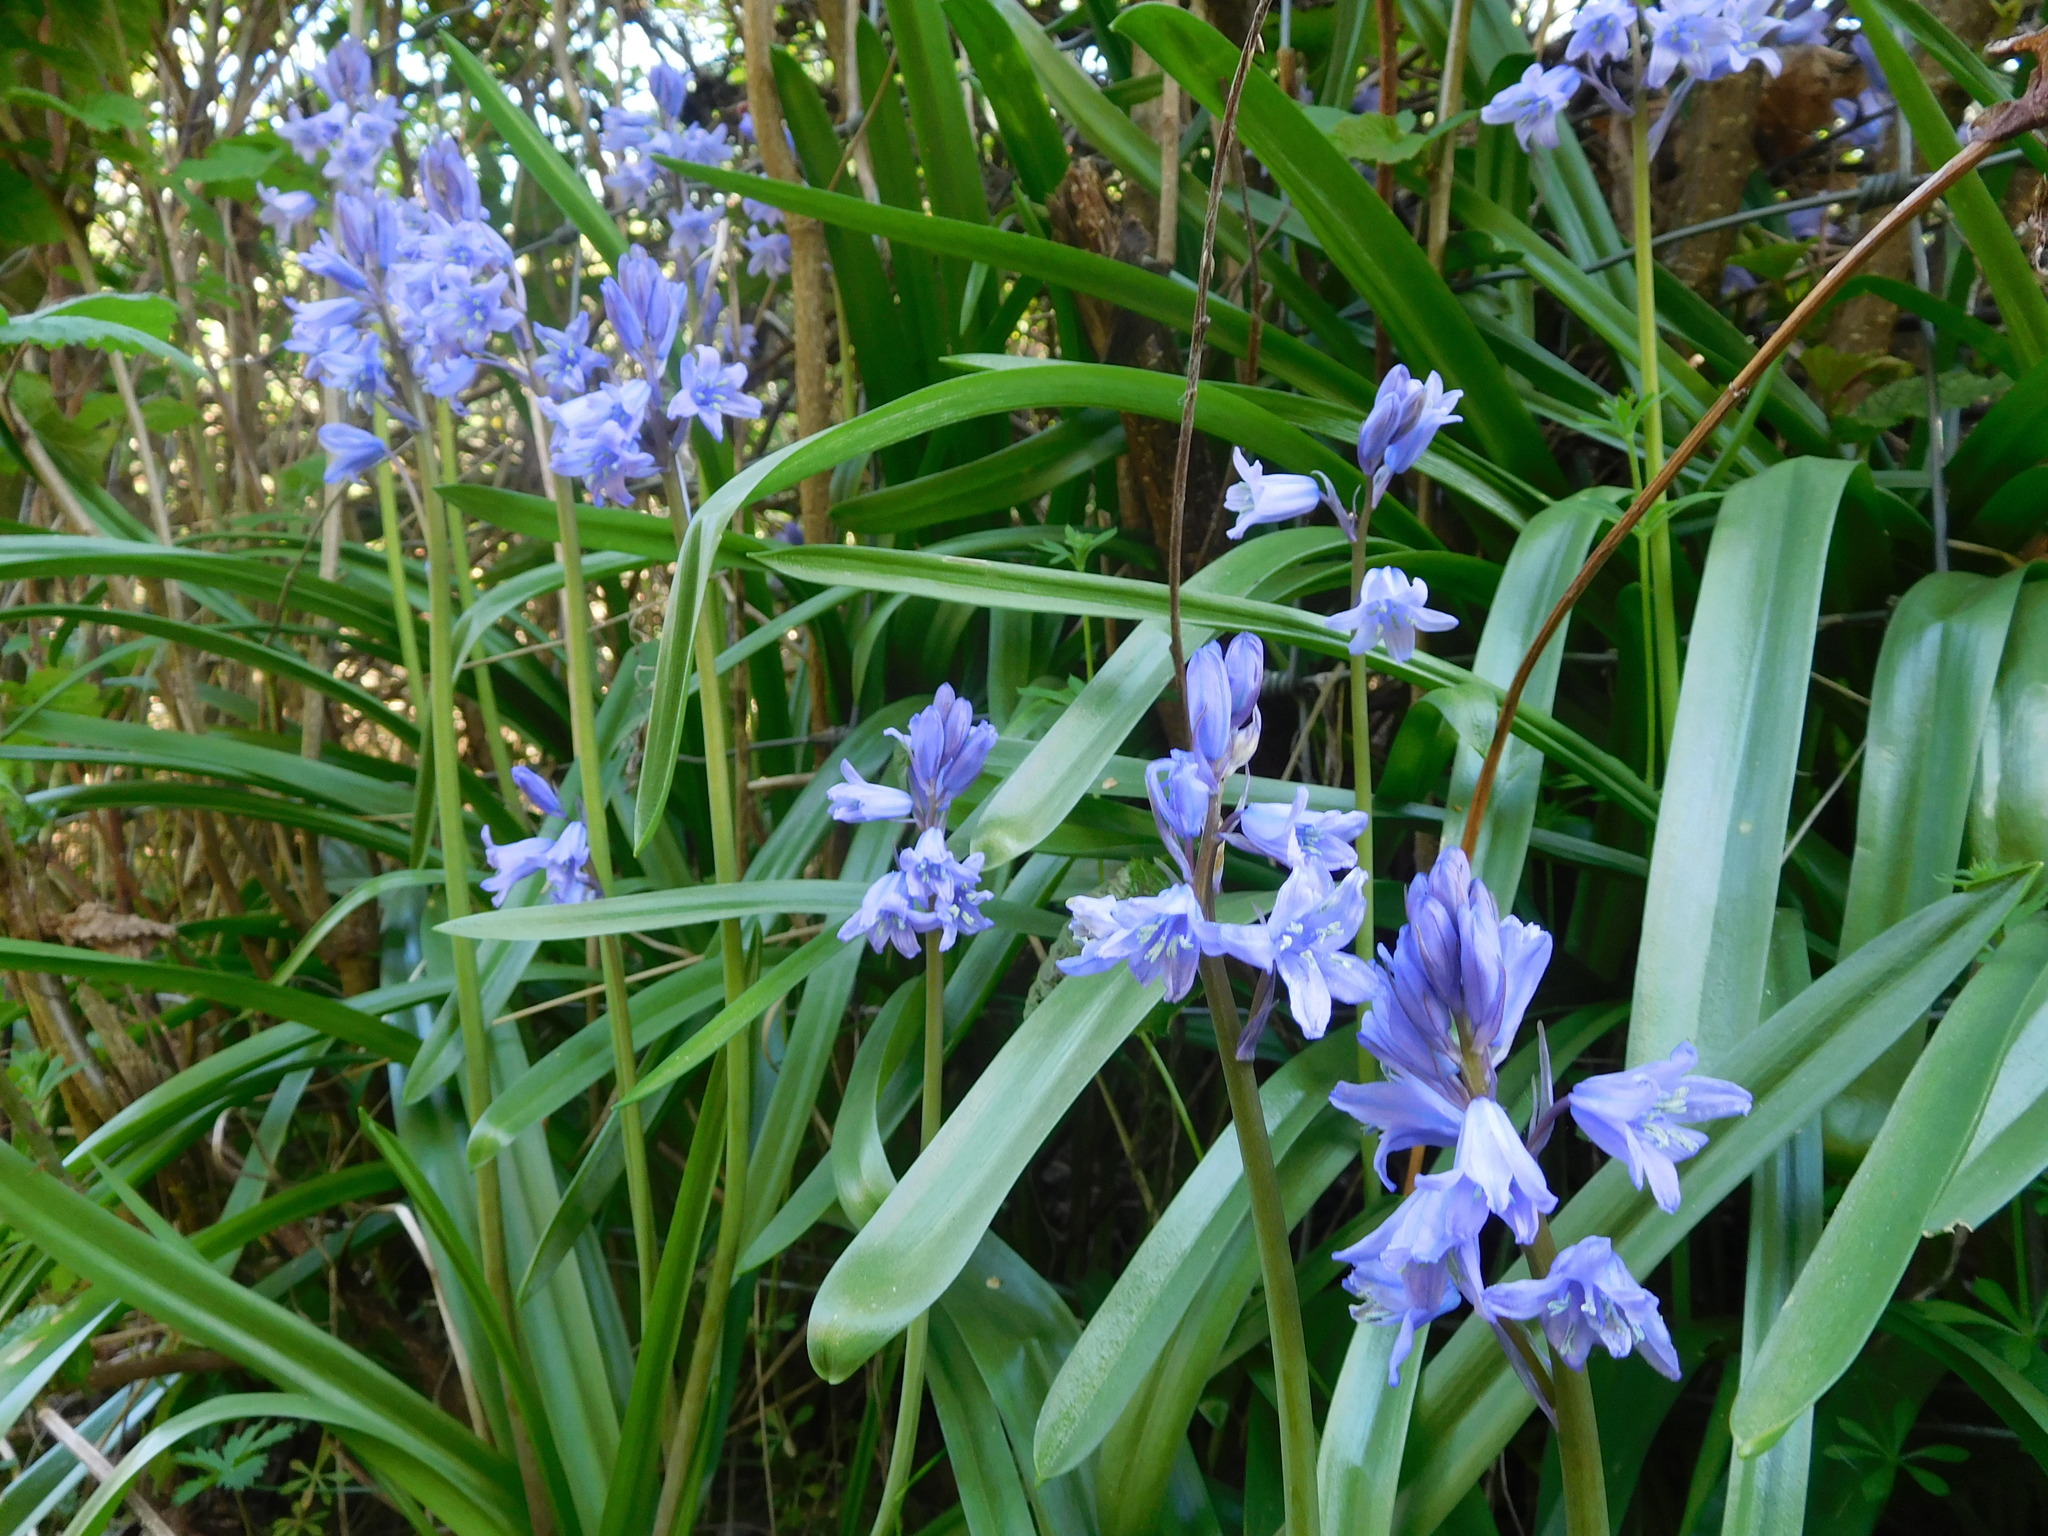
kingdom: Plantae
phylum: Tracheophyta
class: Liliopsida
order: Asparagales
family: Asparagaceae
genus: Hyacinthoides
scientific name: Hyacinthoides hispanica
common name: Spanish bluebell
